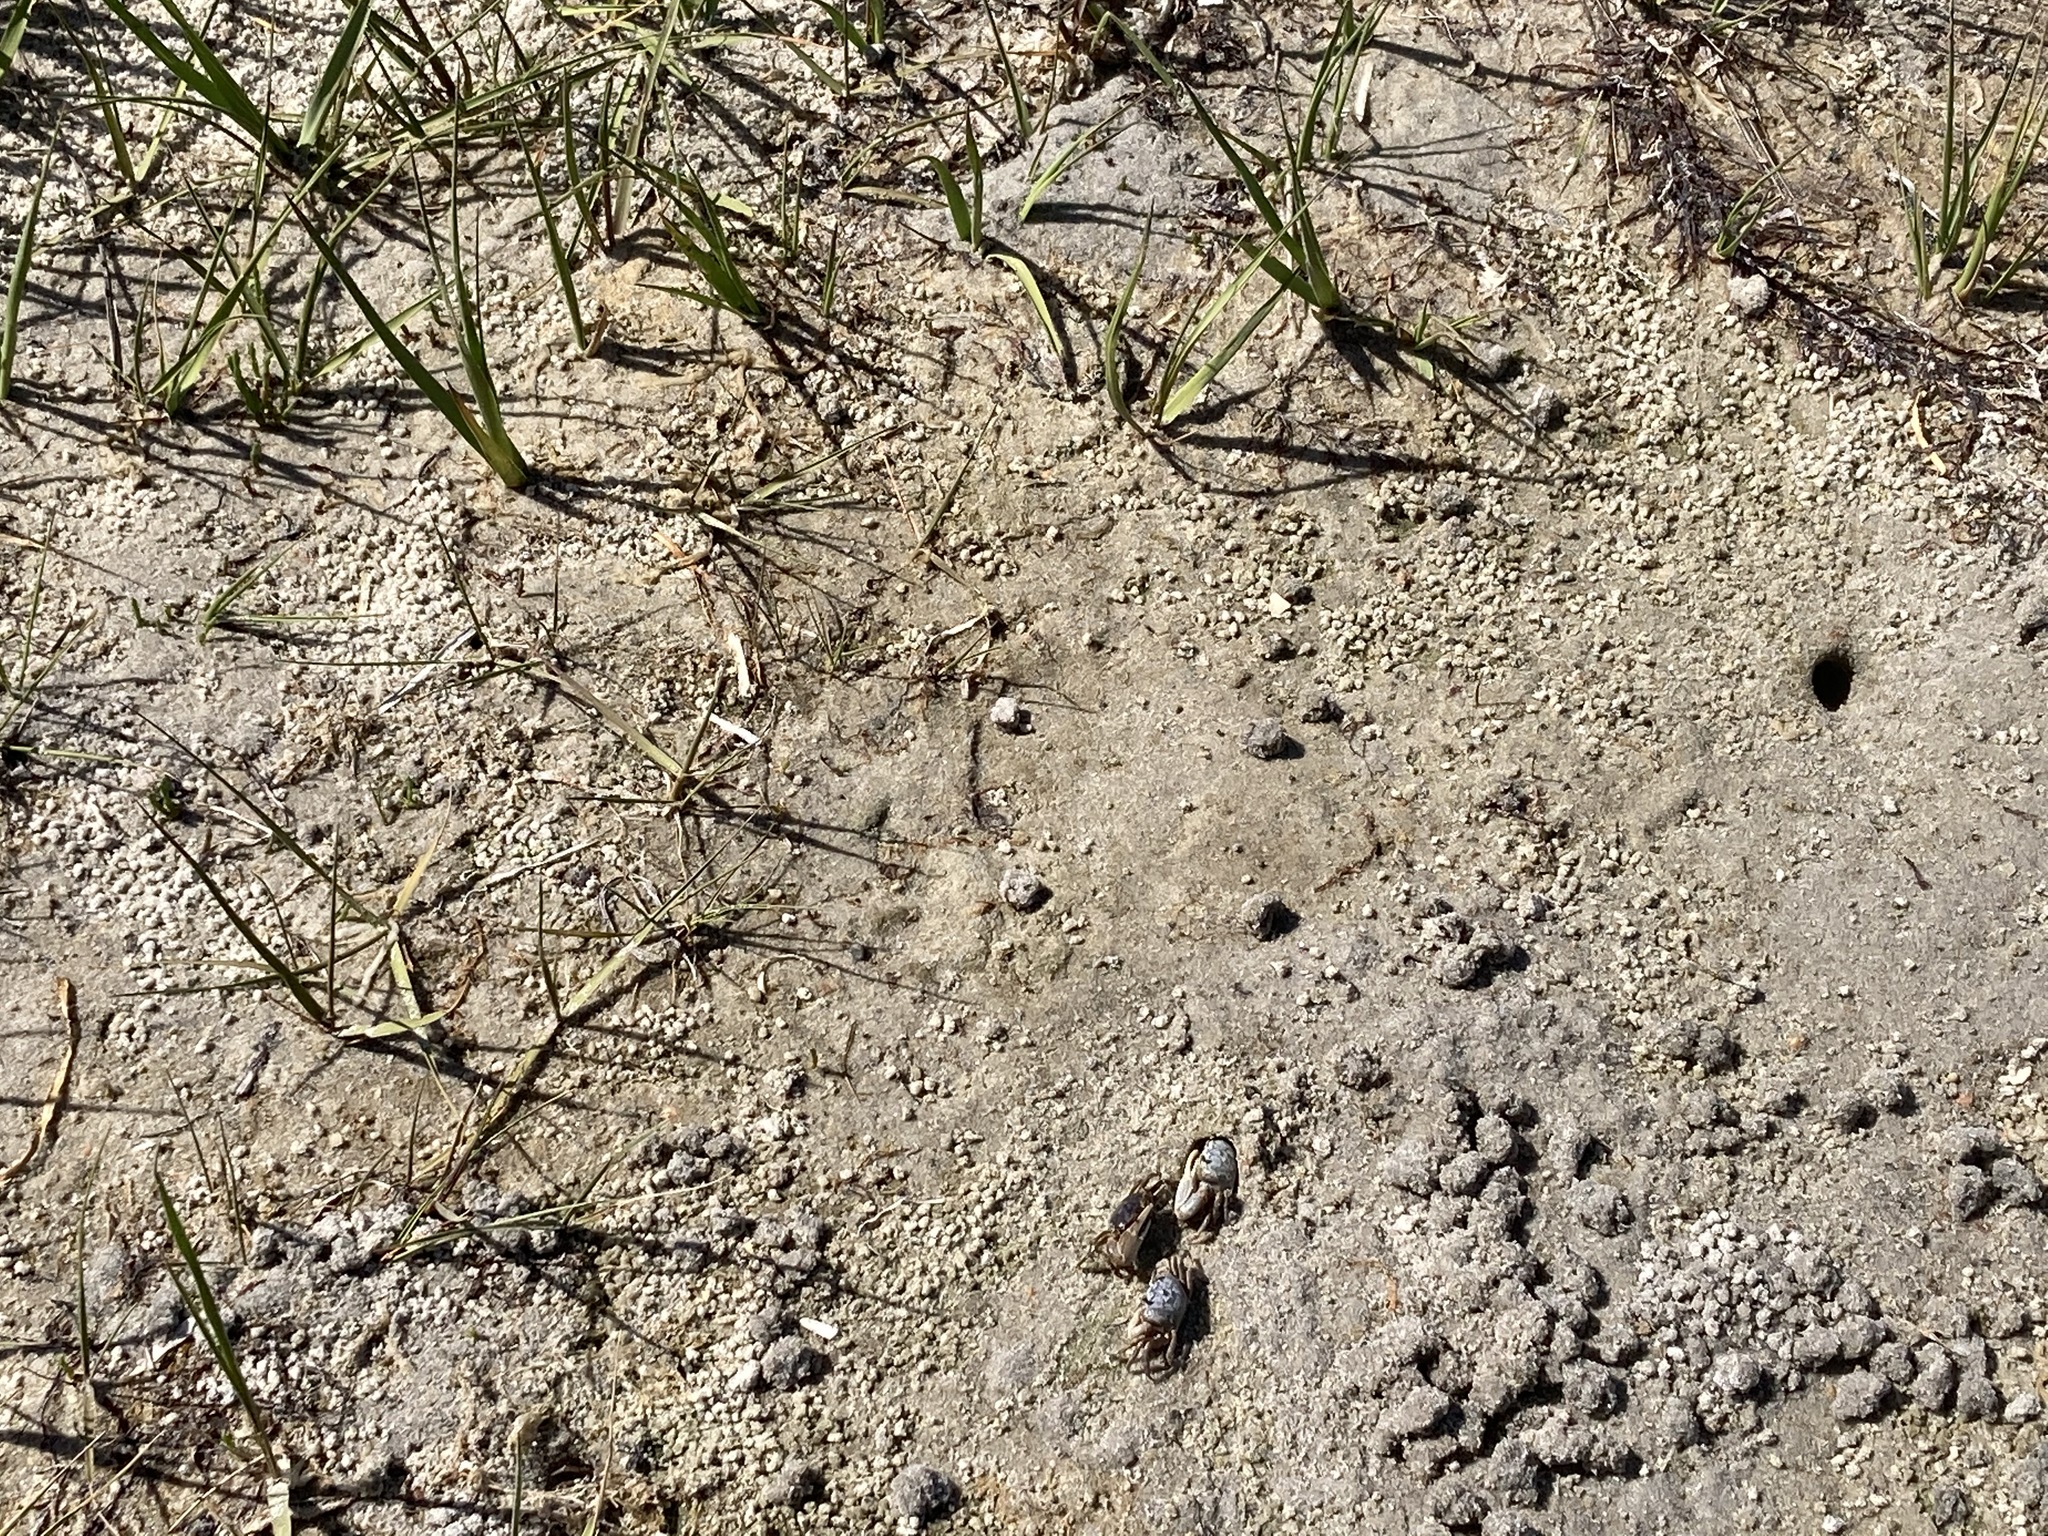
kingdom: Animalia
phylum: Arthropoda
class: Malacostraca
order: Decapoda
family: Ocypodidae
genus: Leptuca
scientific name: Leptuca pugilator
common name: Atlantic sand fiddler crab
